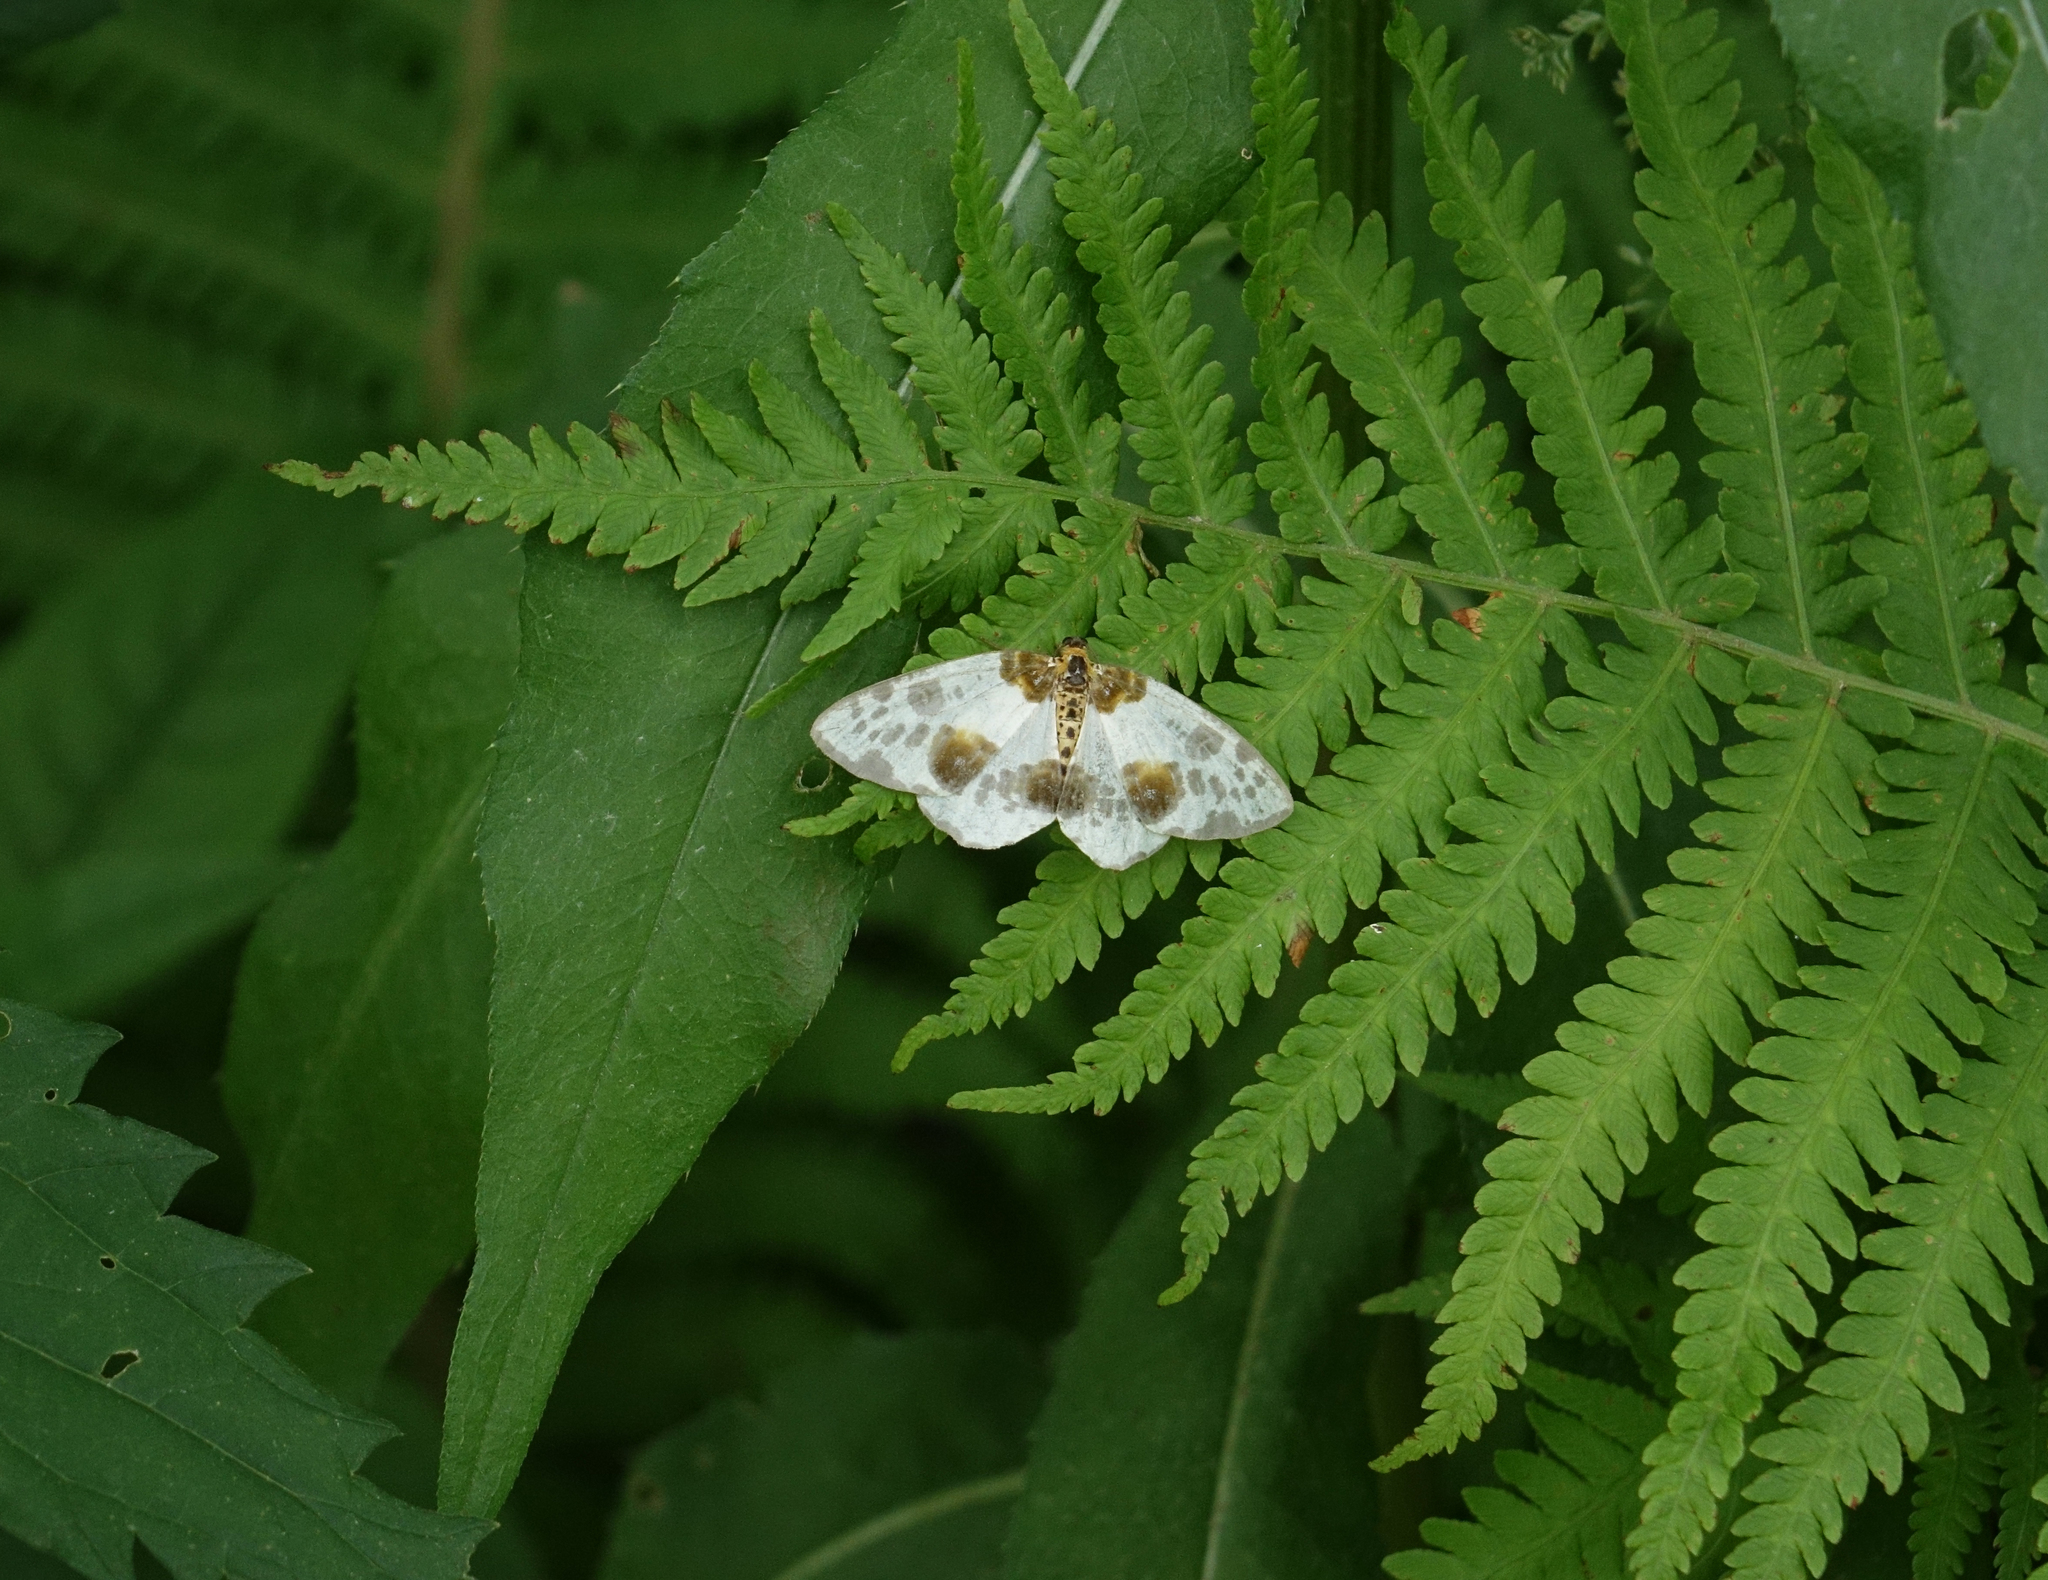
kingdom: Animalia
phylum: Arthropoda
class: Insecta
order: Lepidoptera
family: Geometridae
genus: Abraxas
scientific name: Abraxas sylvata
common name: Clouded magpie
